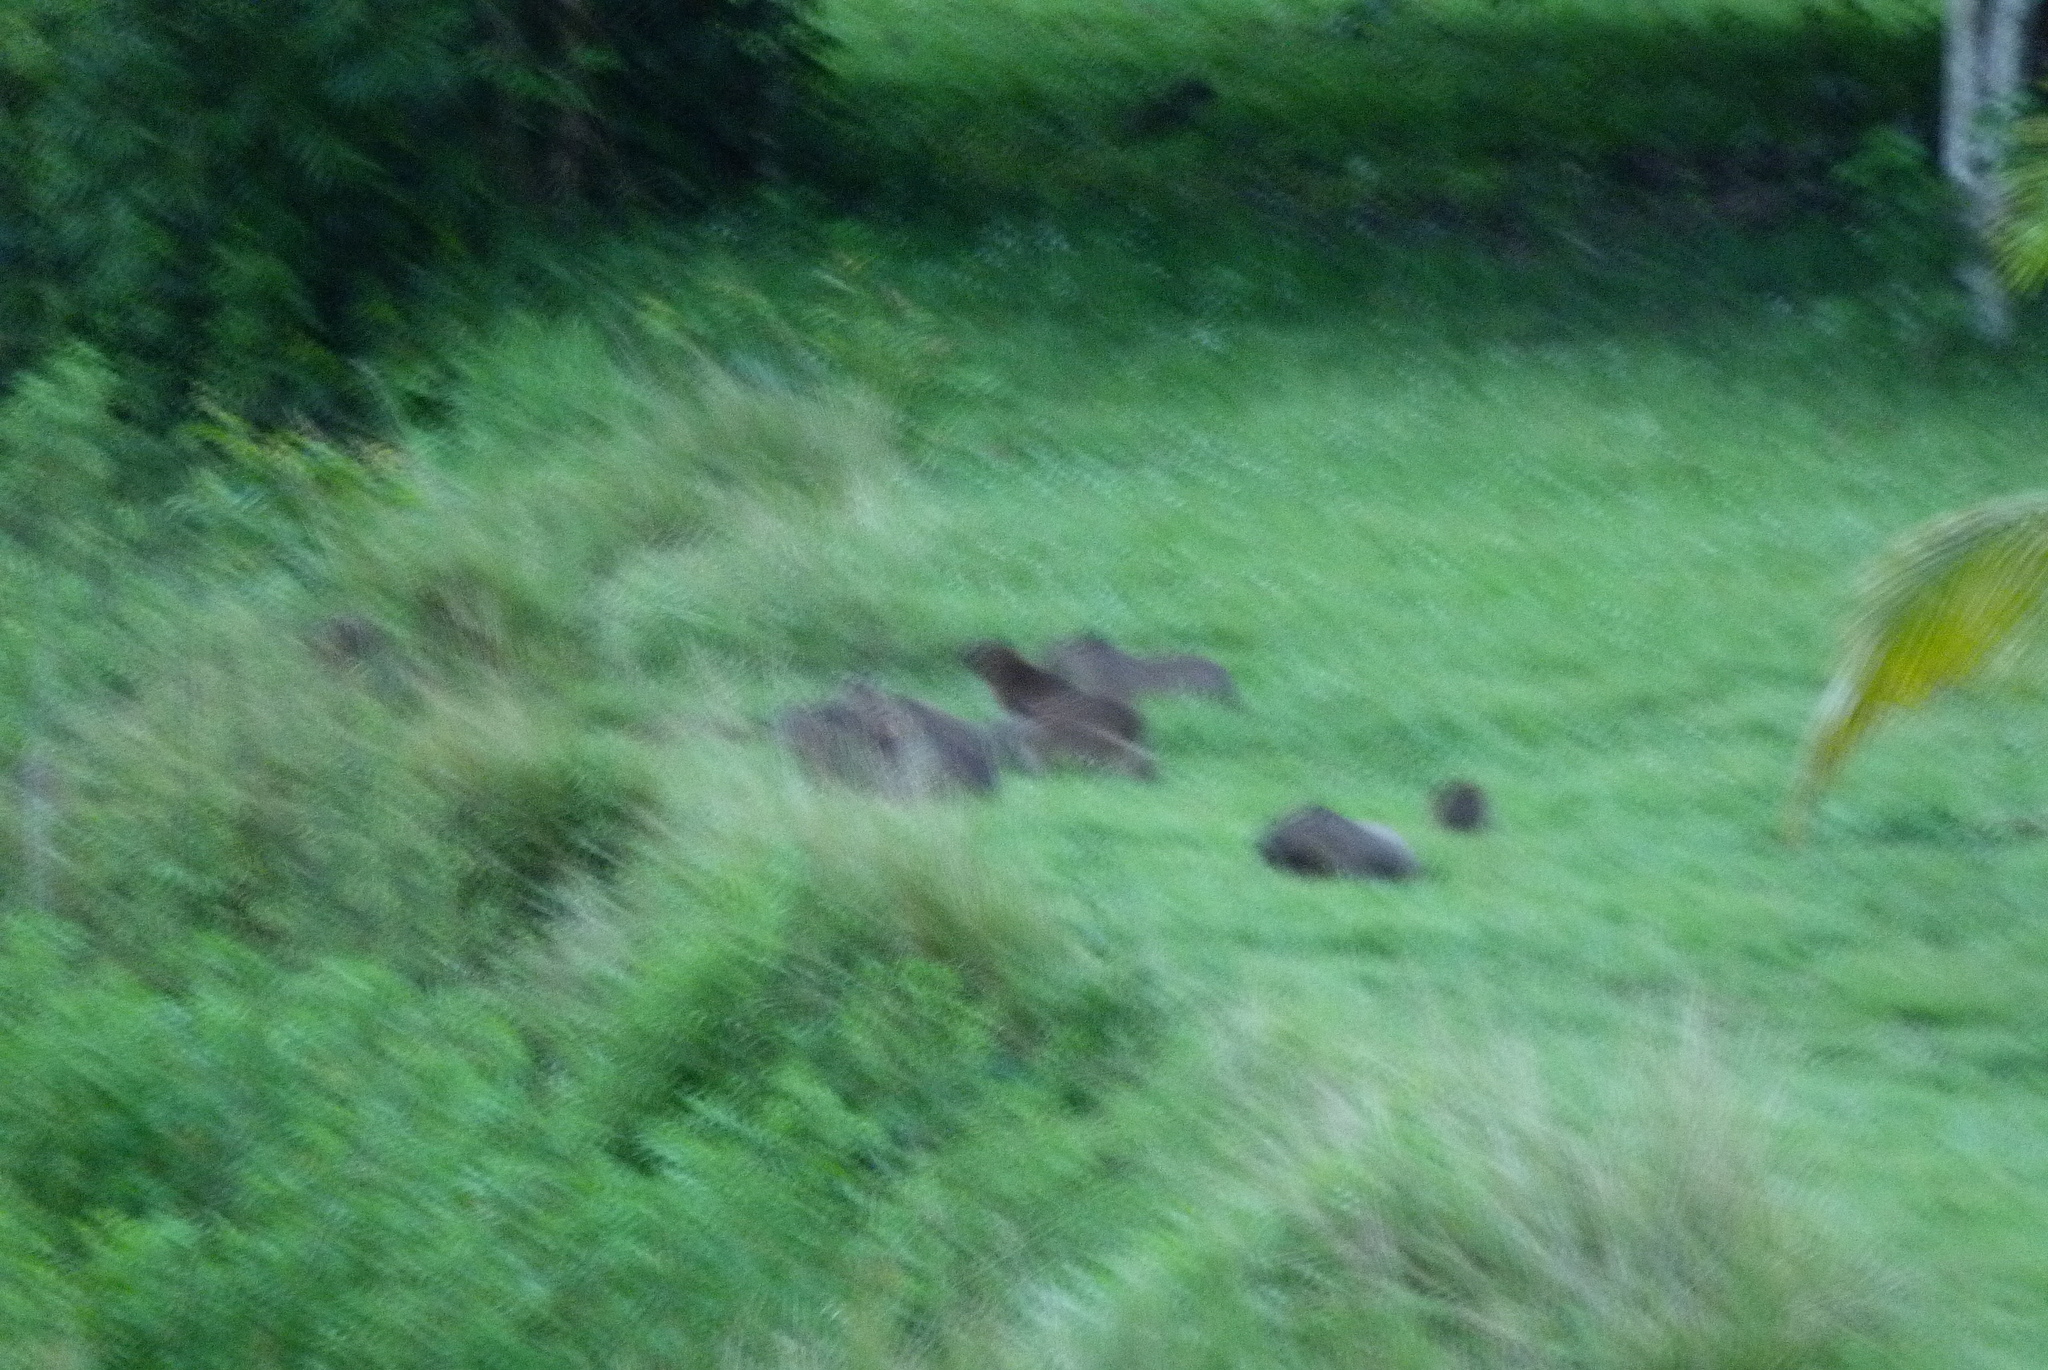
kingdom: Animalia
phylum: Chordata
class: Mammalia
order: Rodentia
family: Caviidae
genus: Hydrochoerus
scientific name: Hydrochoerus isthmius
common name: Lesser capybara
